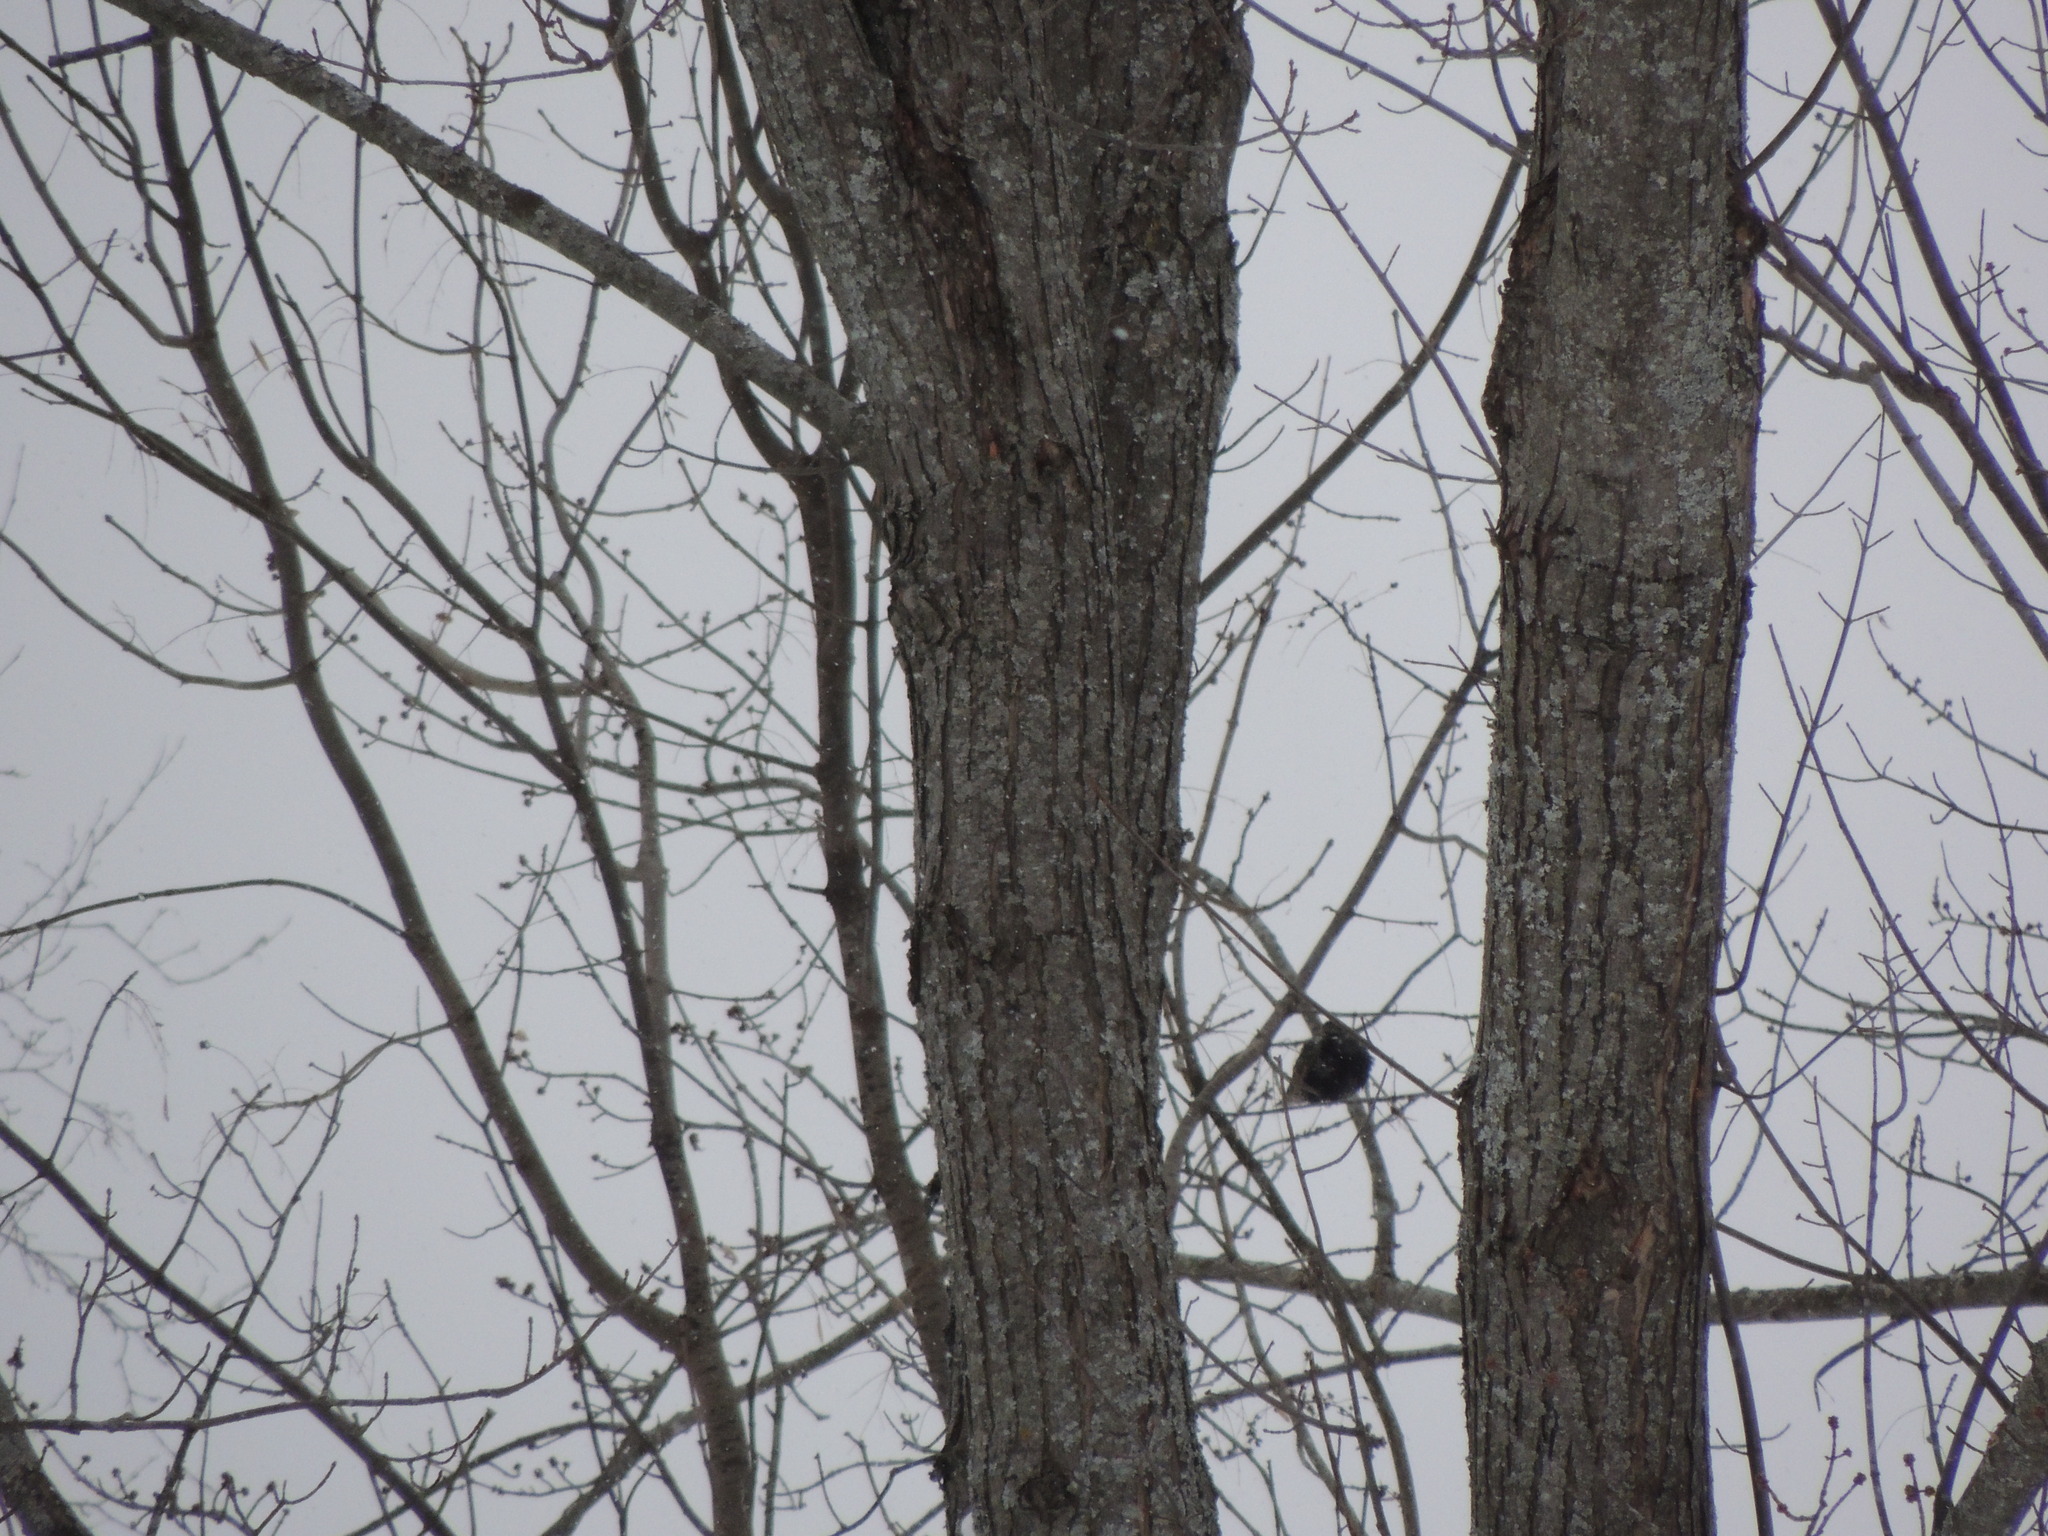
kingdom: Animalia
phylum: Chordata
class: Aves
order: Passeriformes
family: Sturnidae
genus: Sturnus
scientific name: Sturnus vulgaris
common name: Common starling
